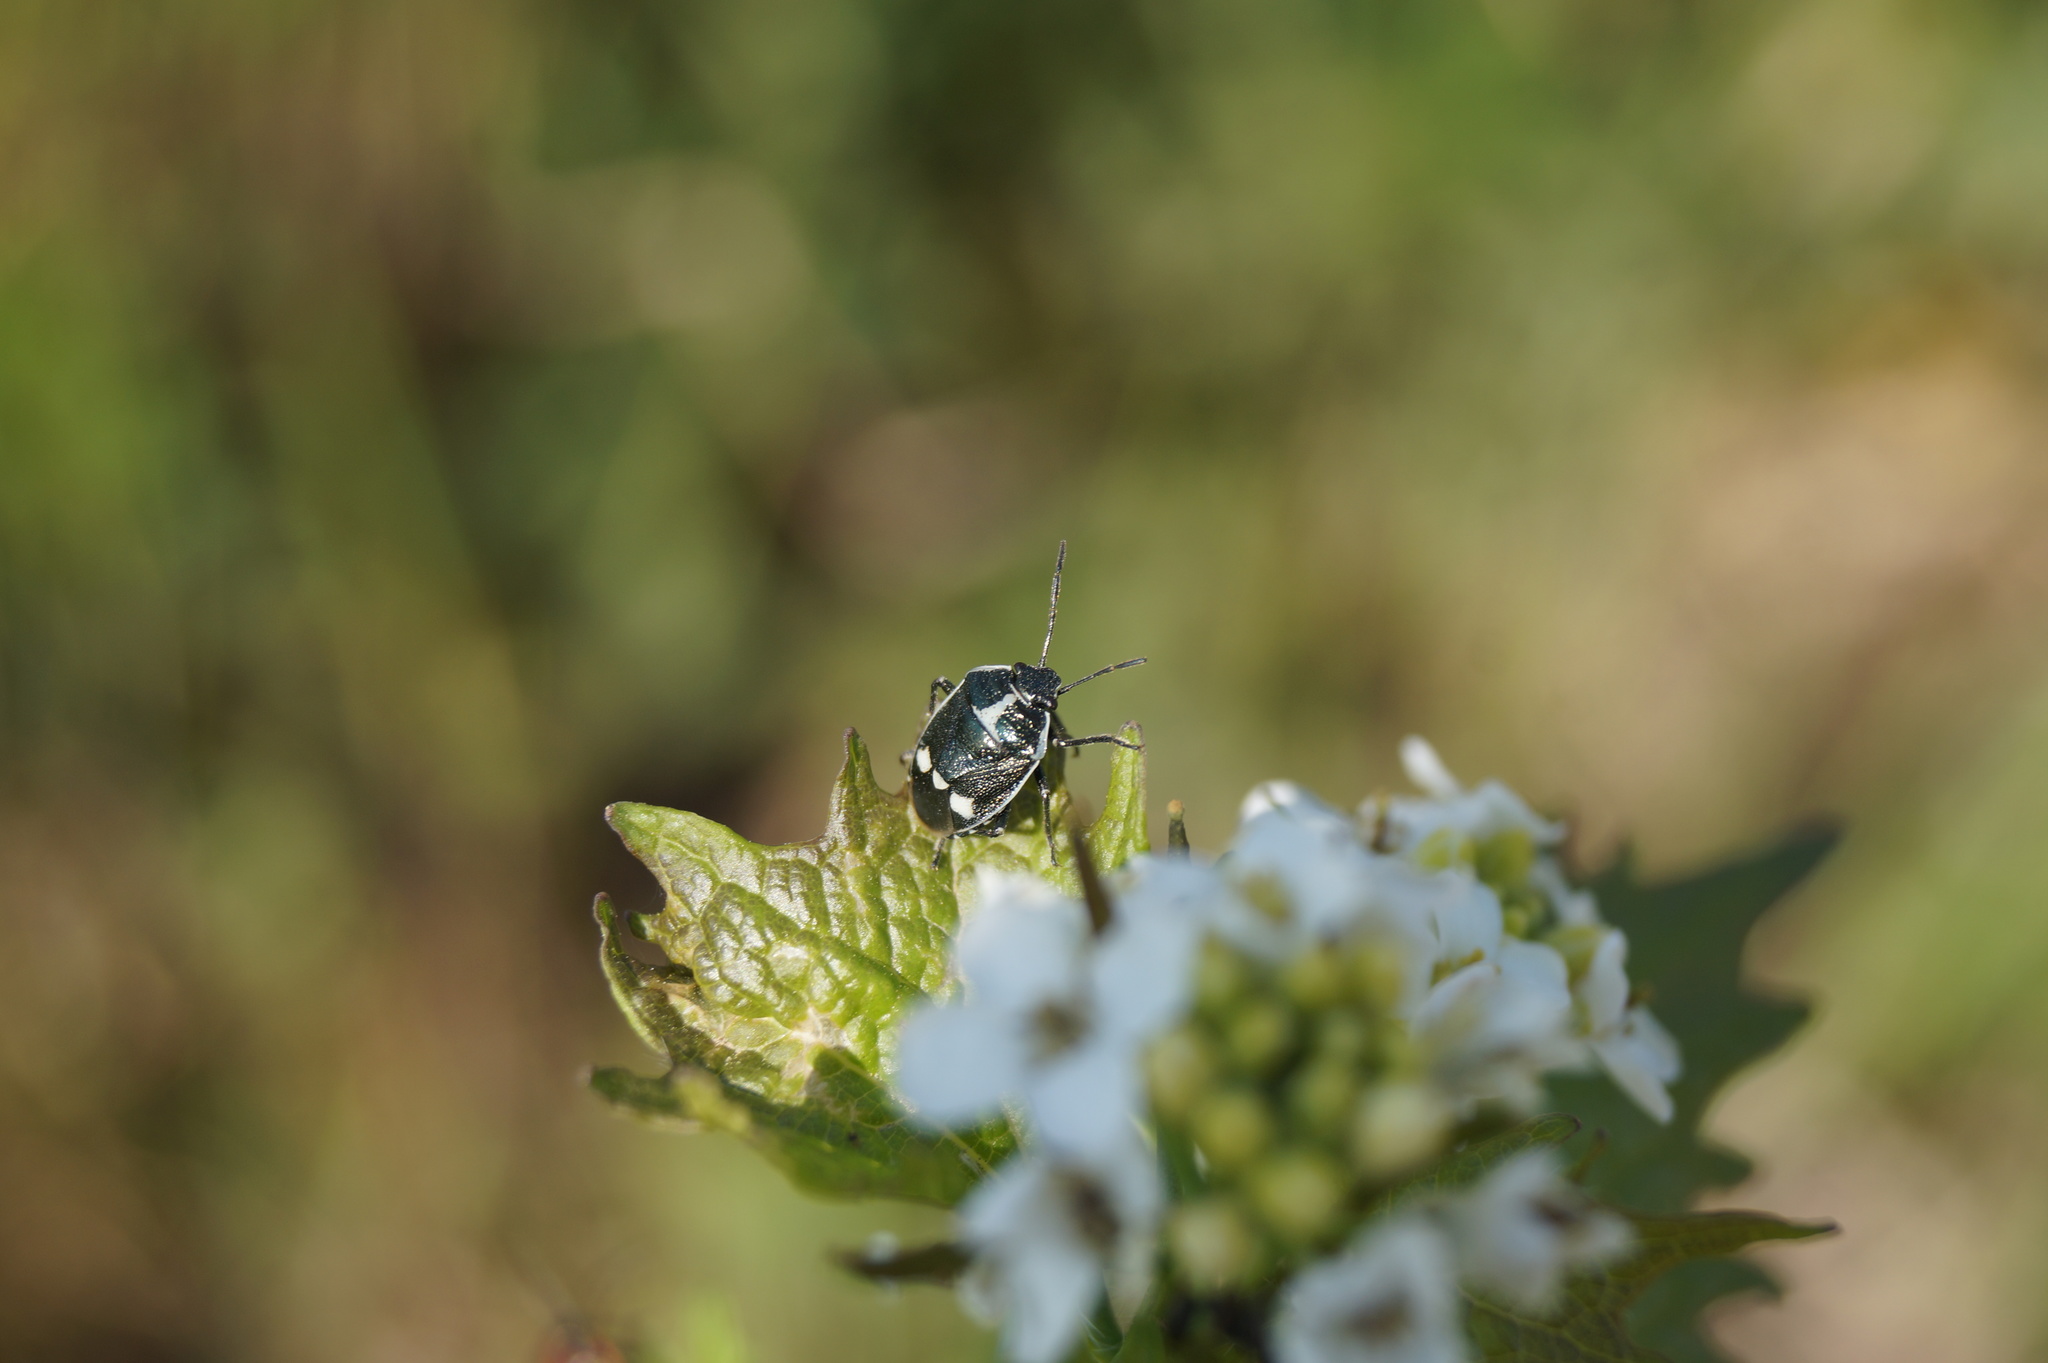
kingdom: Animalia
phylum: Arthropoda
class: Insecta
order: Hemiptera
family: Pentatomidae
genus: Eurydema
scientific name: Eurydema oleracea
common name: Cabbage bug
